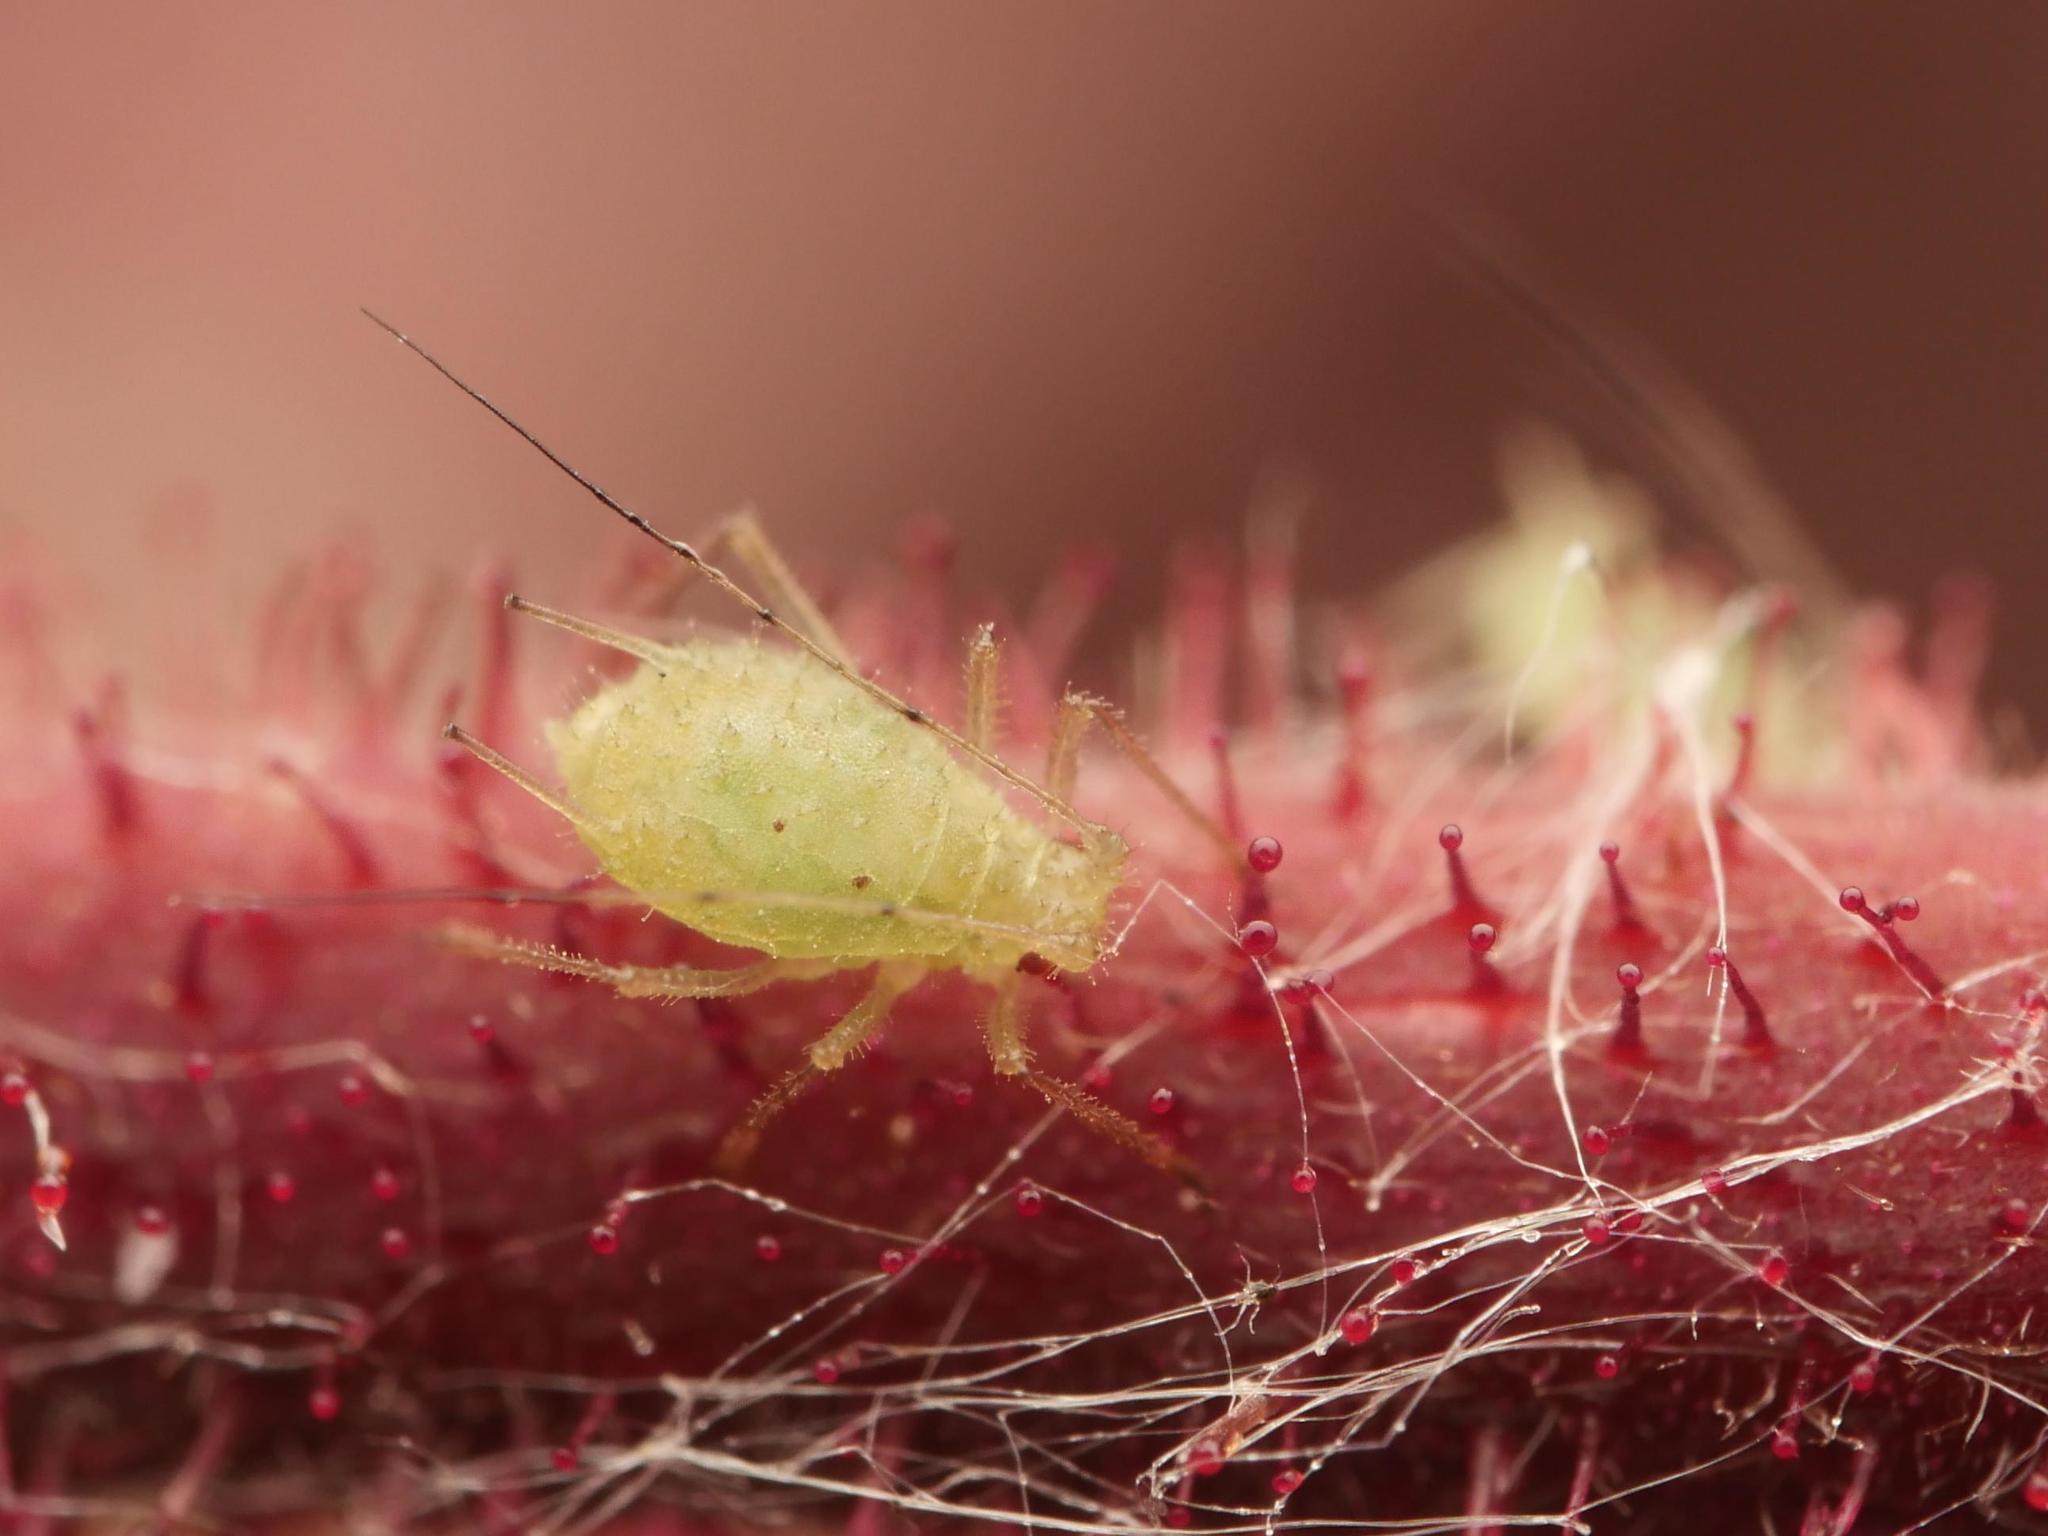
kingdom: Animalia
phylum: Arthropoda
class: Insecta
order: Hemiptera
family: Aphididae
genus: Corylobium
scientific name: Corylobium avellanae
